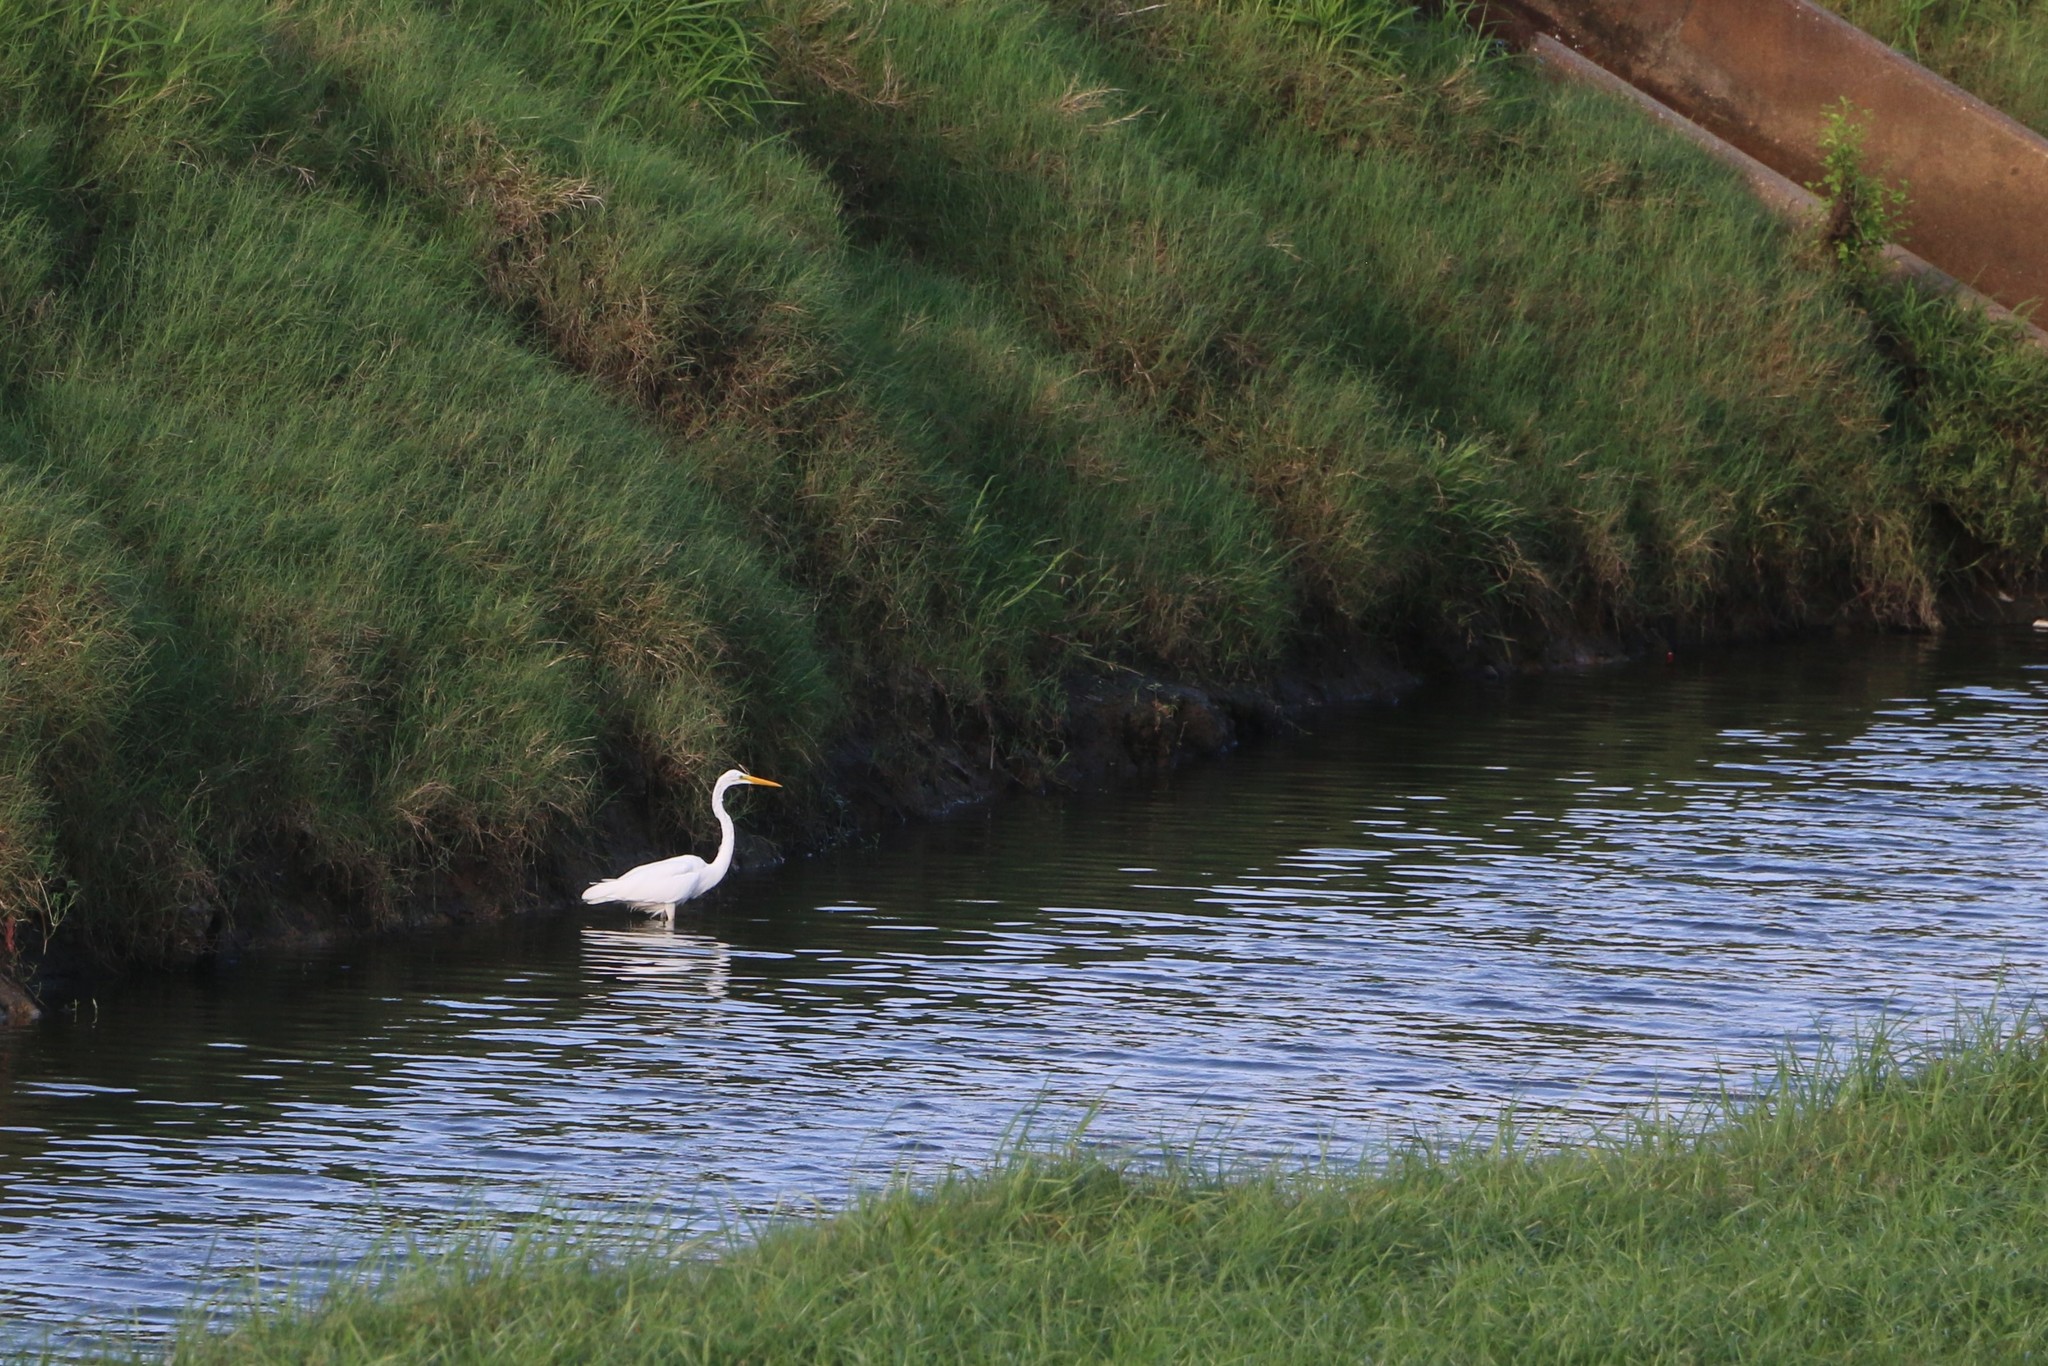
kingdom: Animalia
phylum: Chordata
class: Aves
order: Pelecaniformes
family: Ardeidae
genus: Ardea
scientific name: Ardea alba
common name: Great egret
